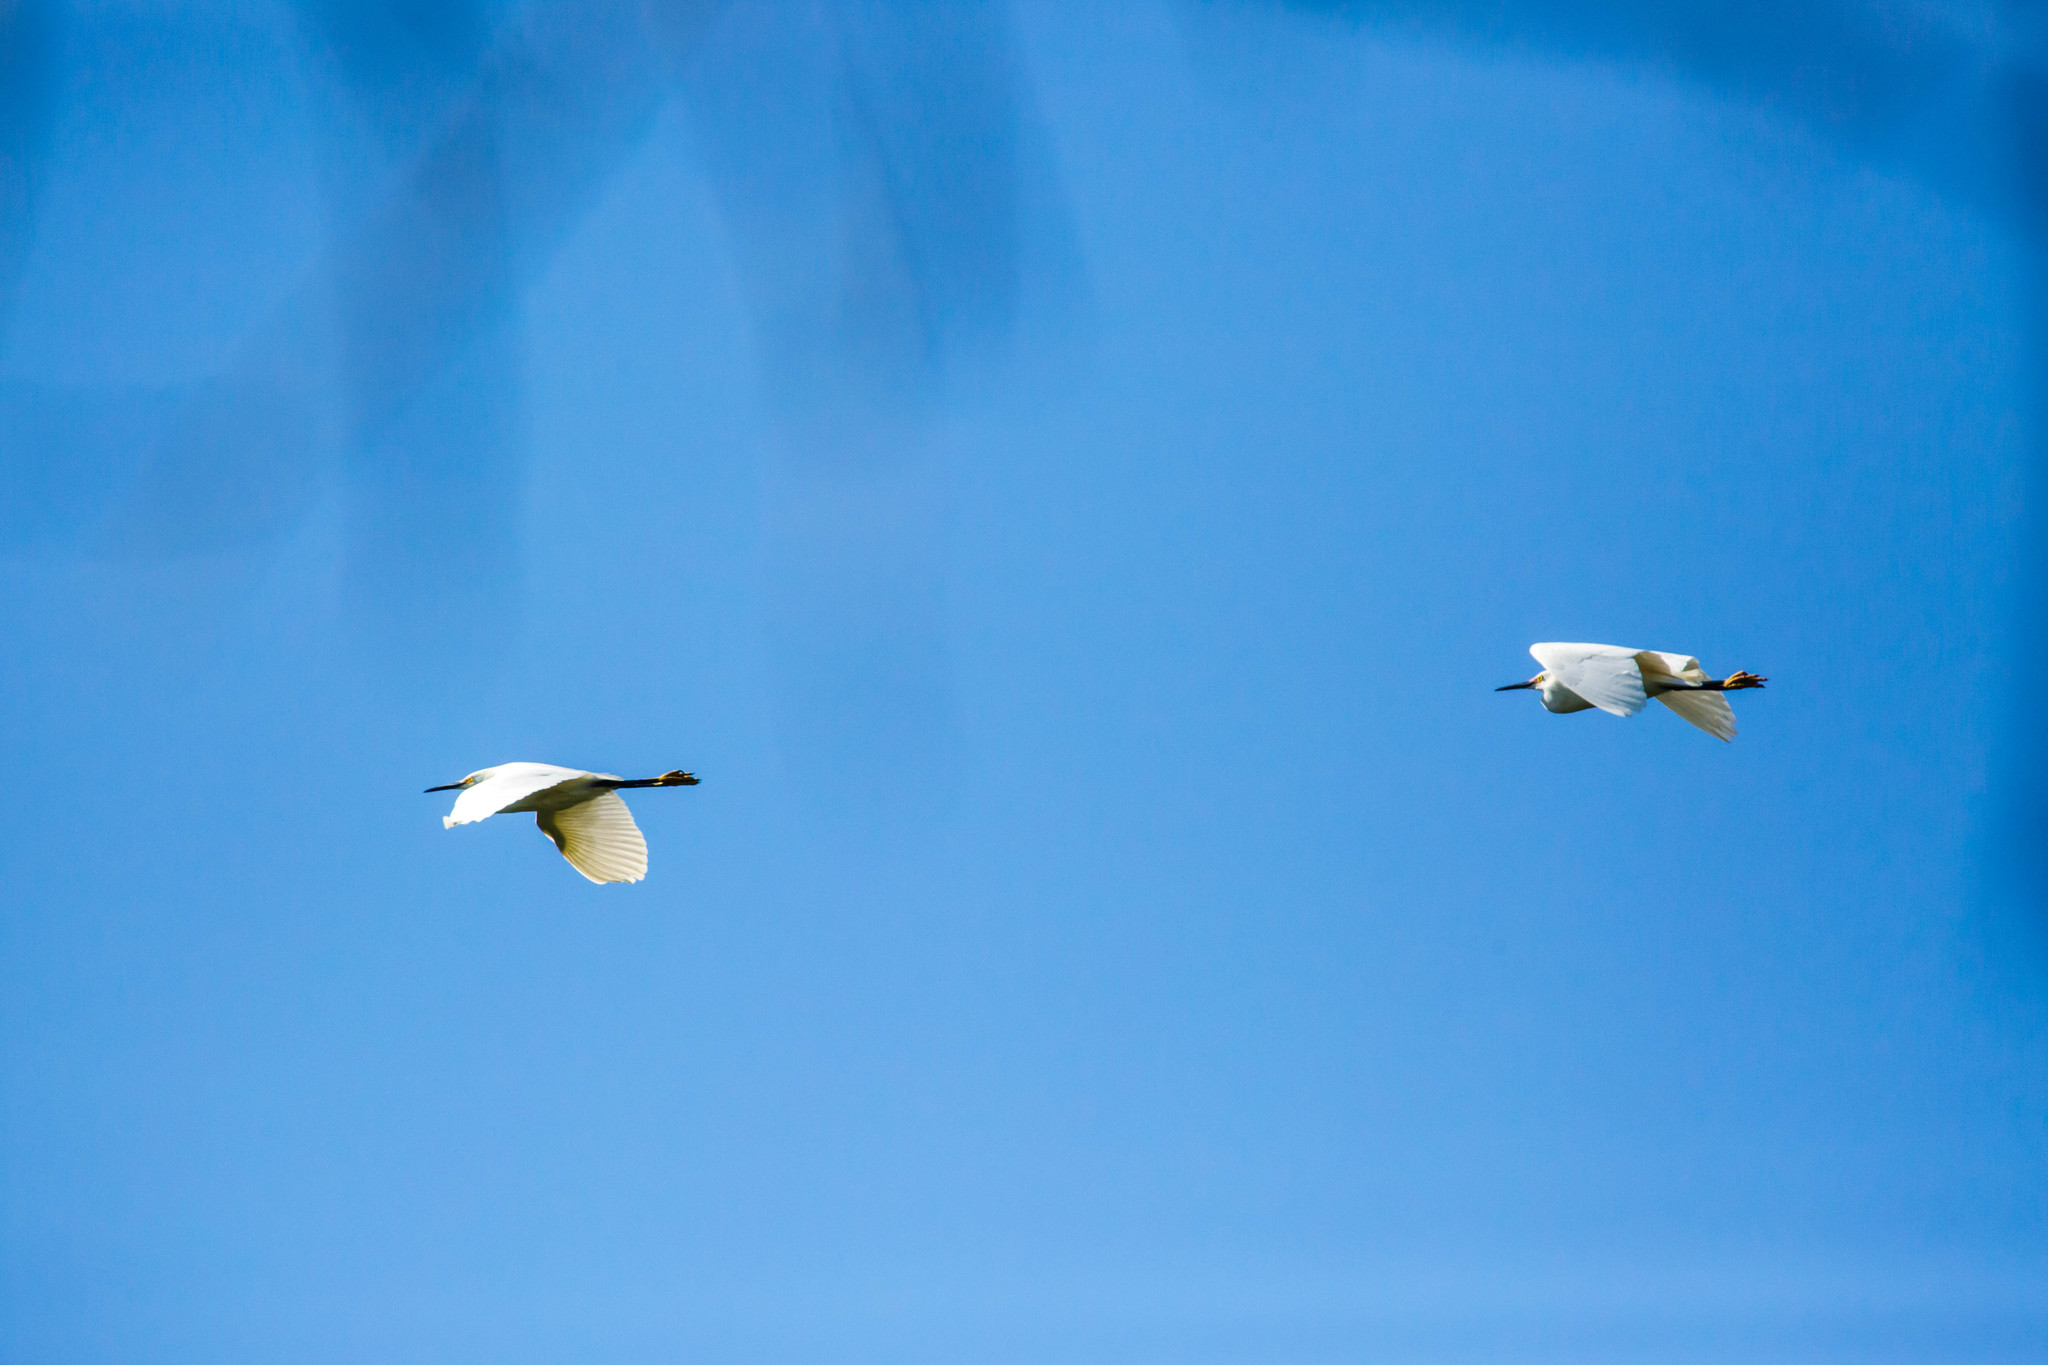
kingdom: Animalia
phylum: Chordata
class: Aves
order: Pelecaniformes
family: Ardeidae
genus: Egretta
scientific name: Egretta thula
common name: Snowy egret
